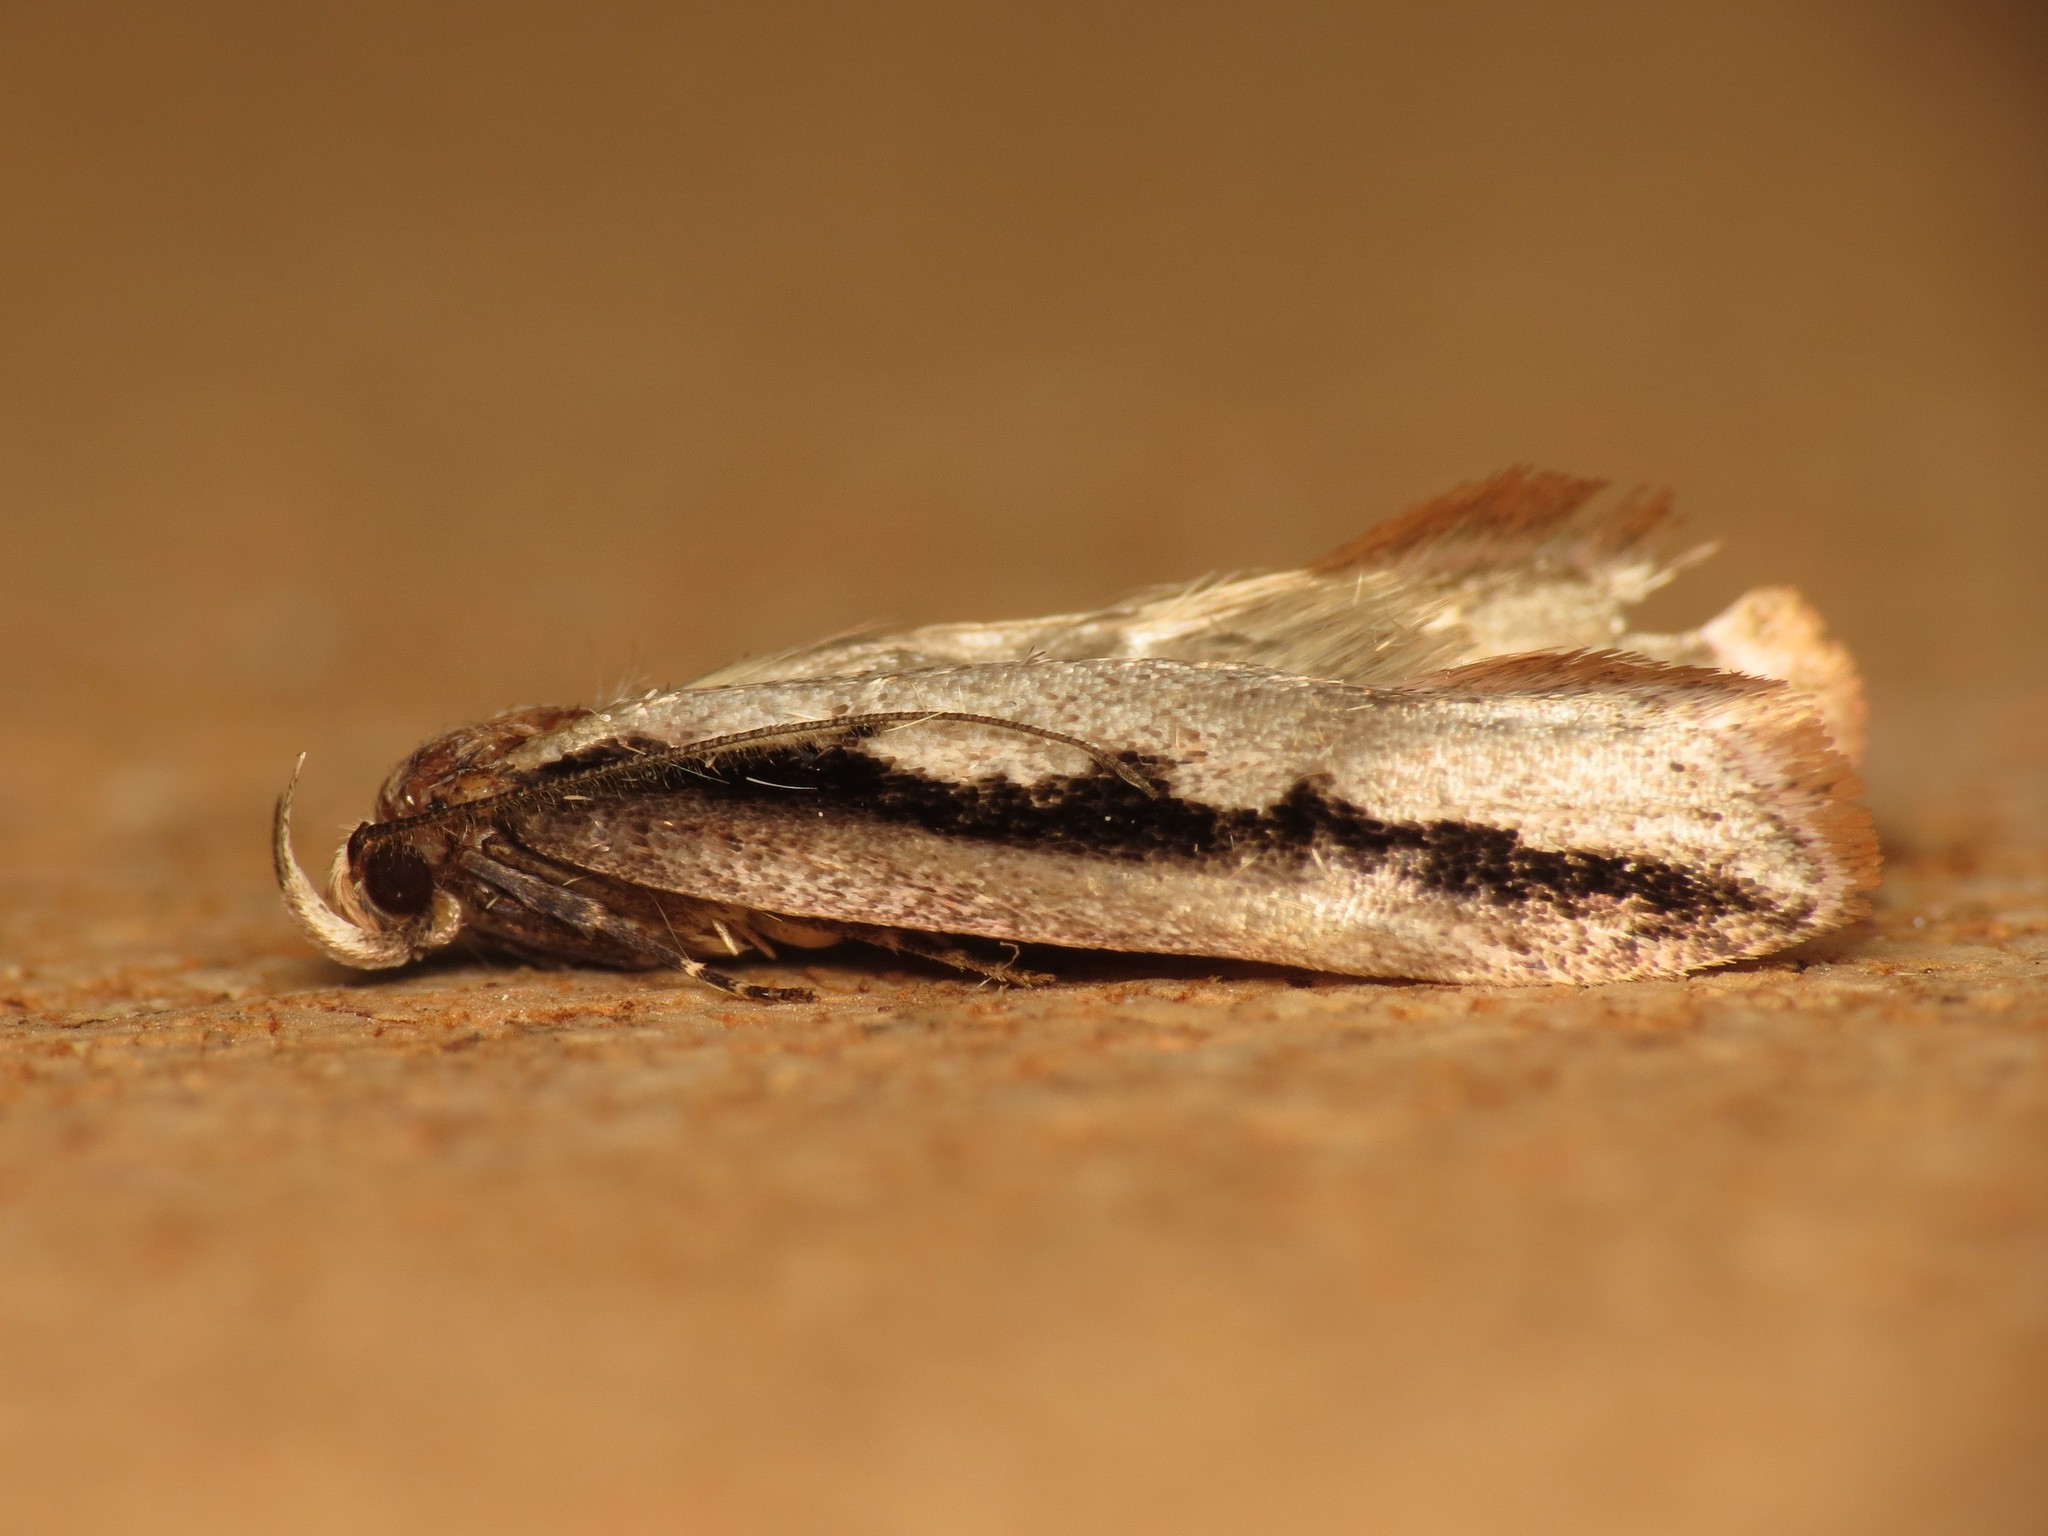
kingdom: Animalia
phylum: Arthropoda
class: Insecta
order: Lepidoptera
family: Oecophoridae
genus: Leptocroca
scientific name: Leptocroca sanguinolenta
